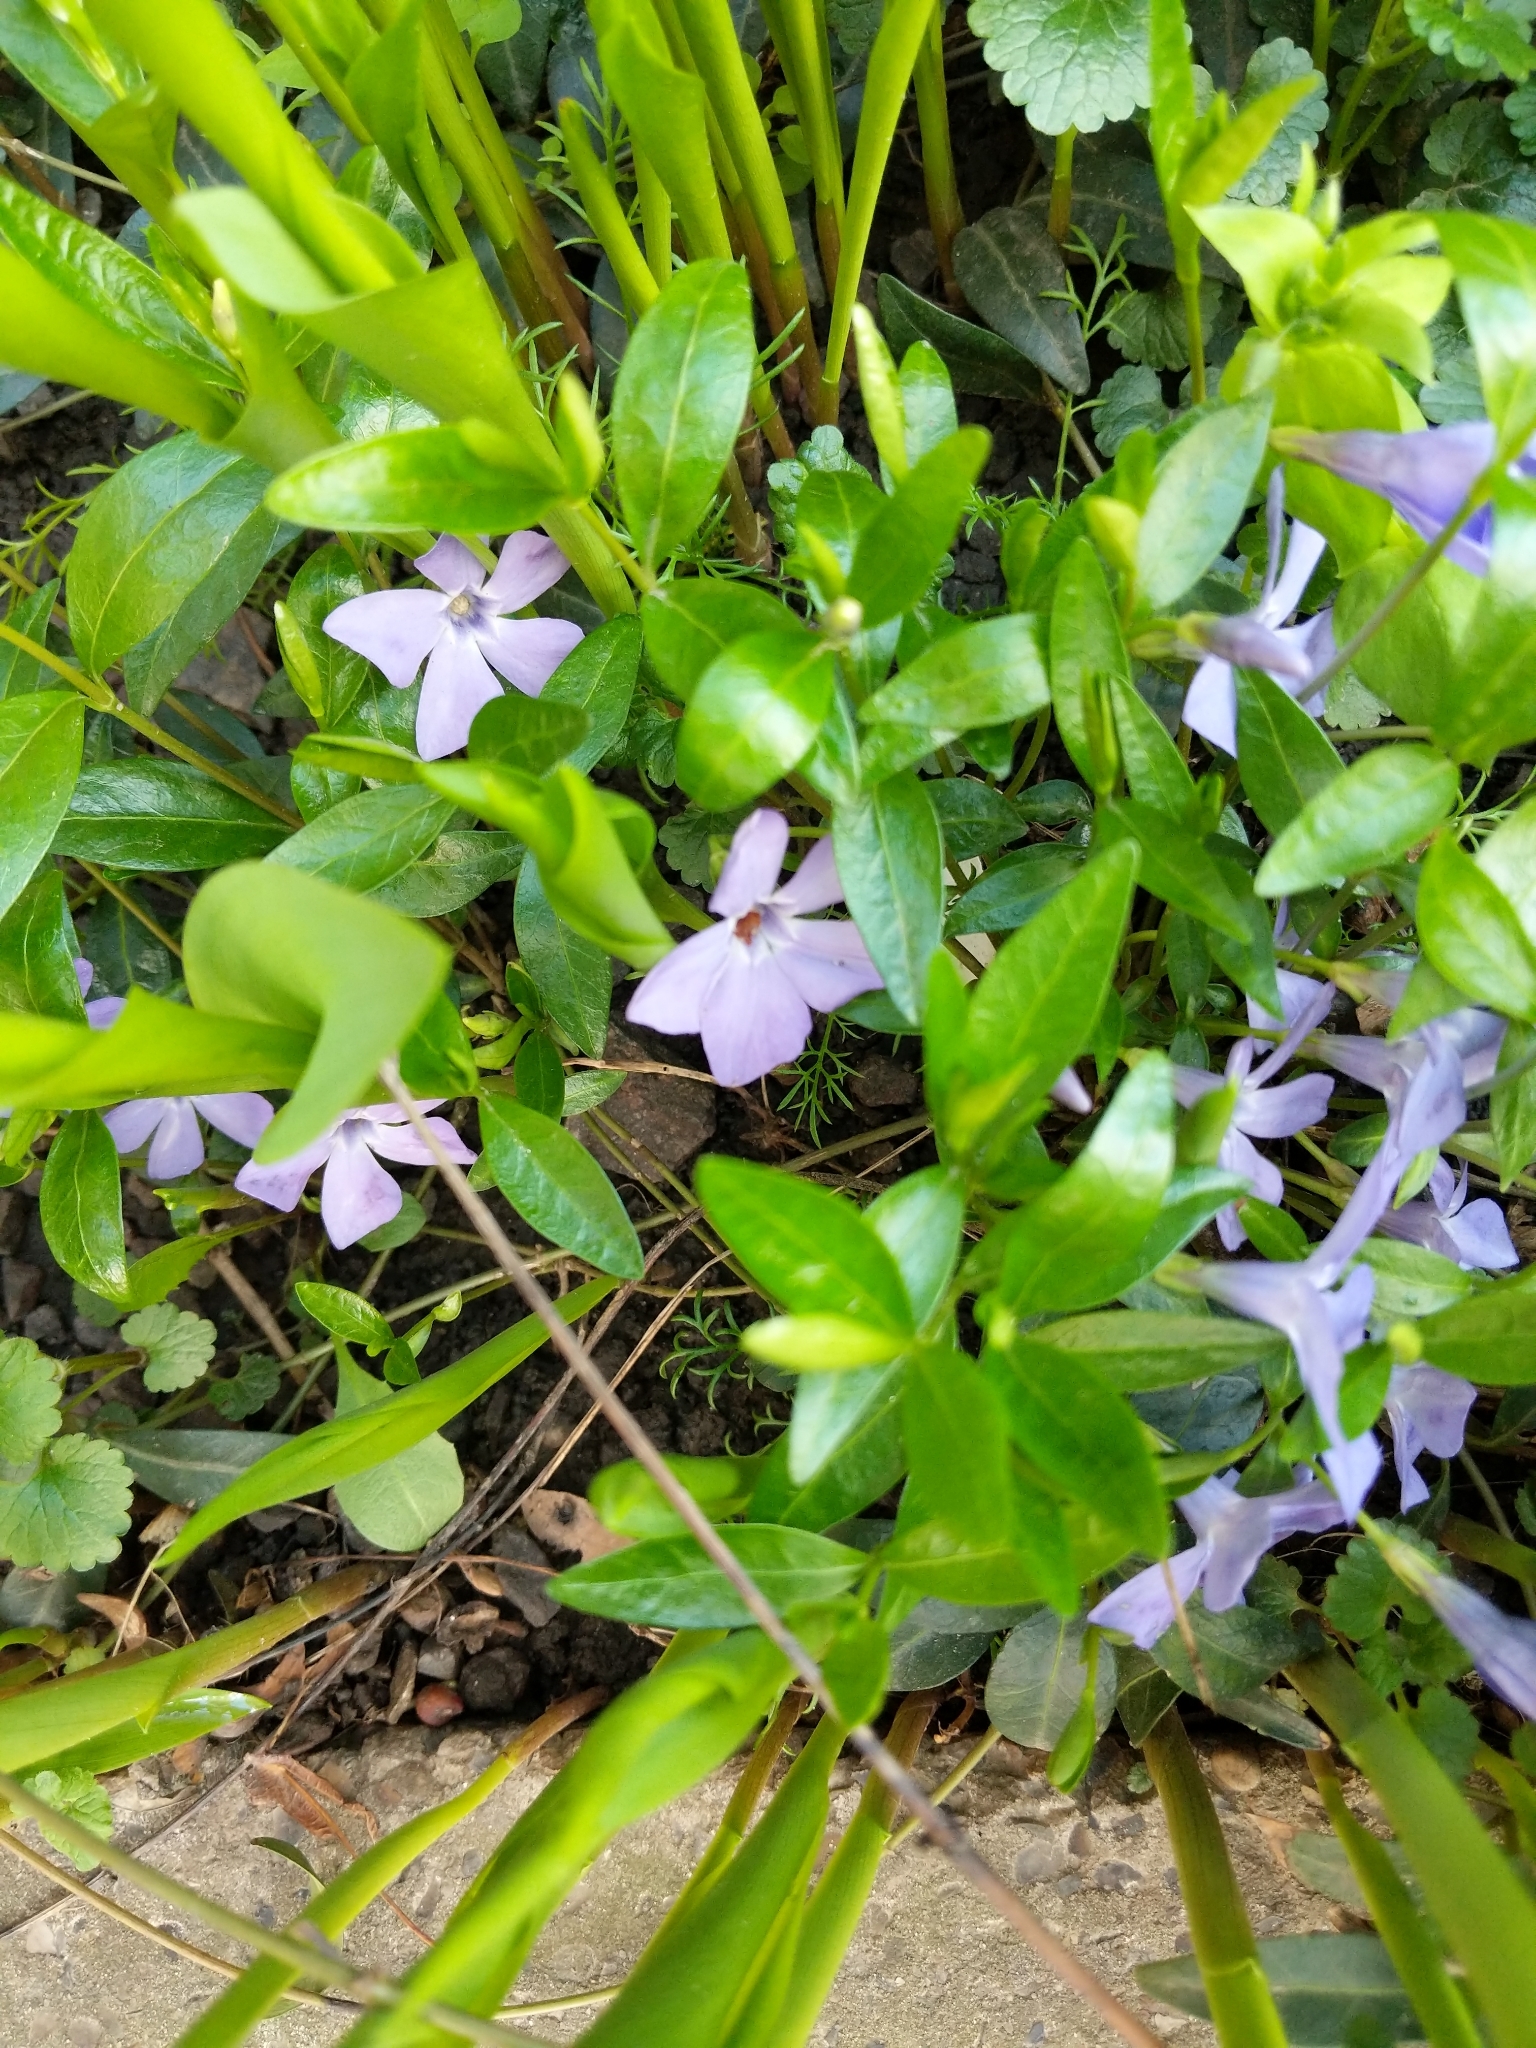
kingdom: Plantae
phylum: Tracheophyta
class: Magnoliopsida
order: Gentianales
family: Apocynaceae
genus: Vinca
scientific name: Vinca minor
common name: Lesser periwinkle
